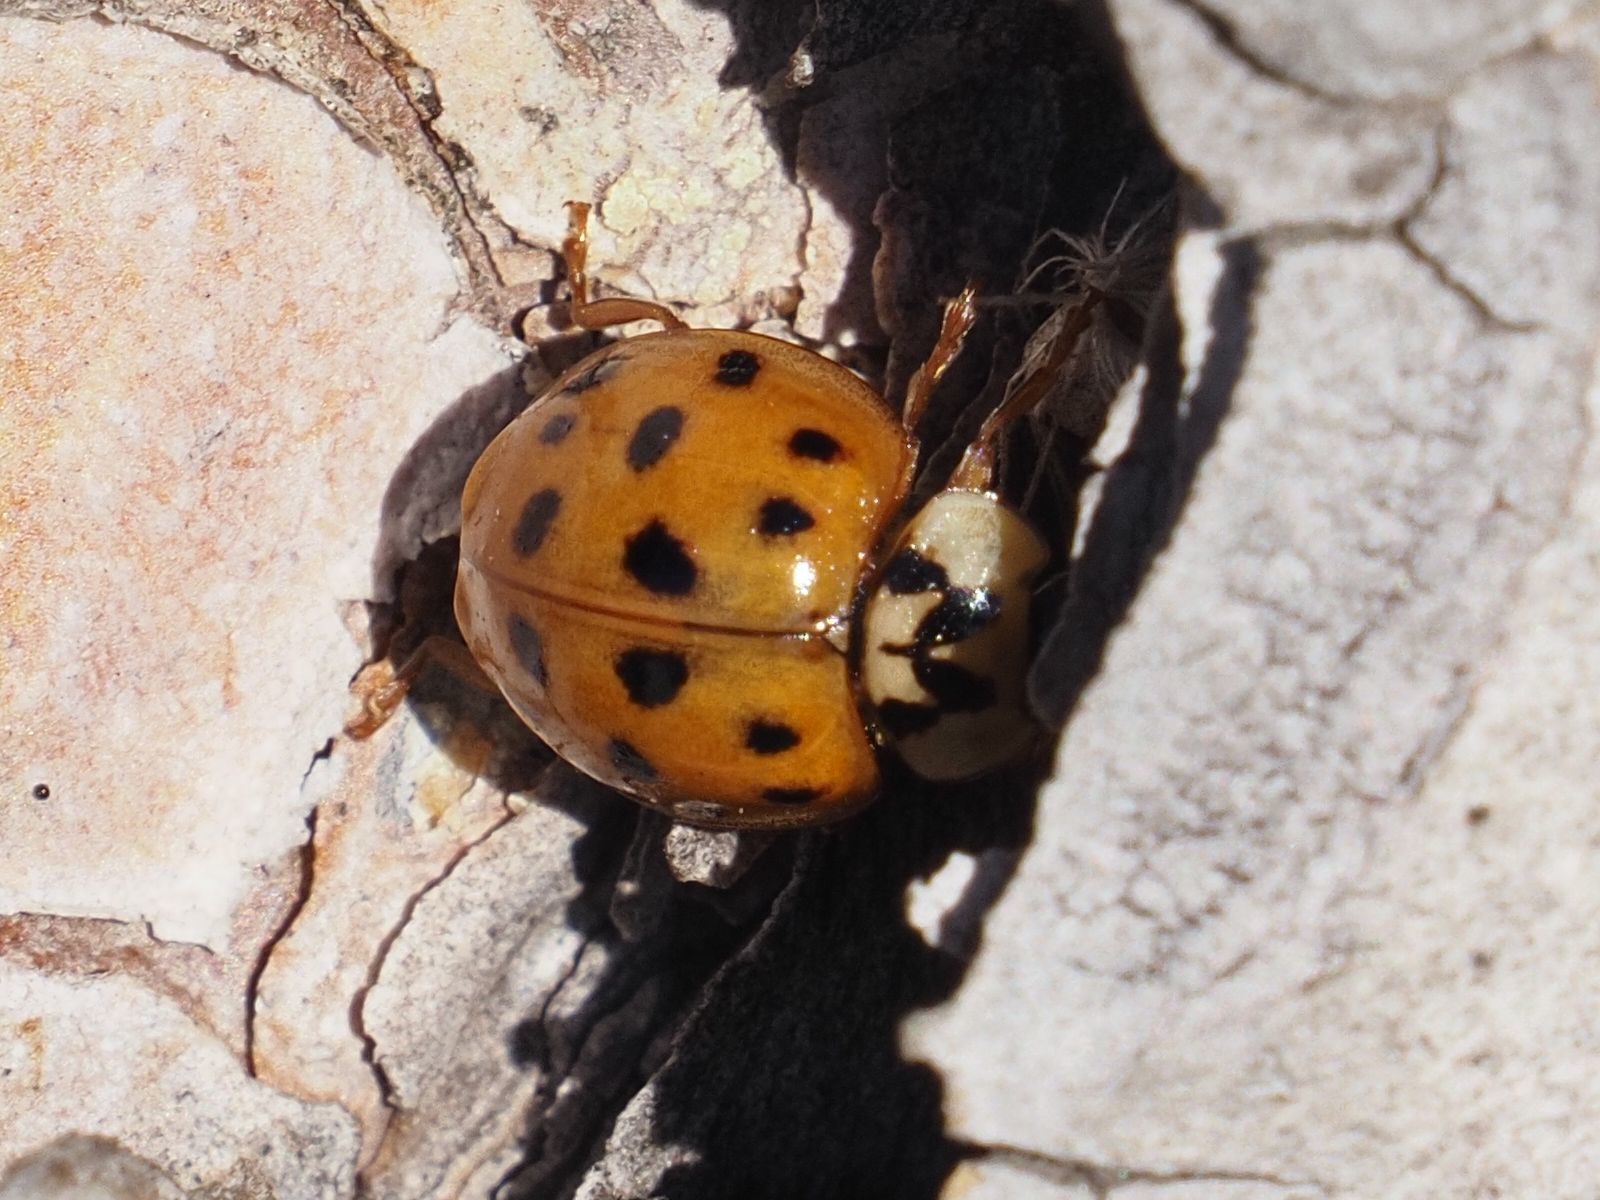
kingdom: Animalia
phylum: Arthropoda
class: Insecta
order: Coleoptera
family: Coccinellidae
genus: Harmonia
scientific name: Harmonia axyridis
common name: Harlequin ladybird
